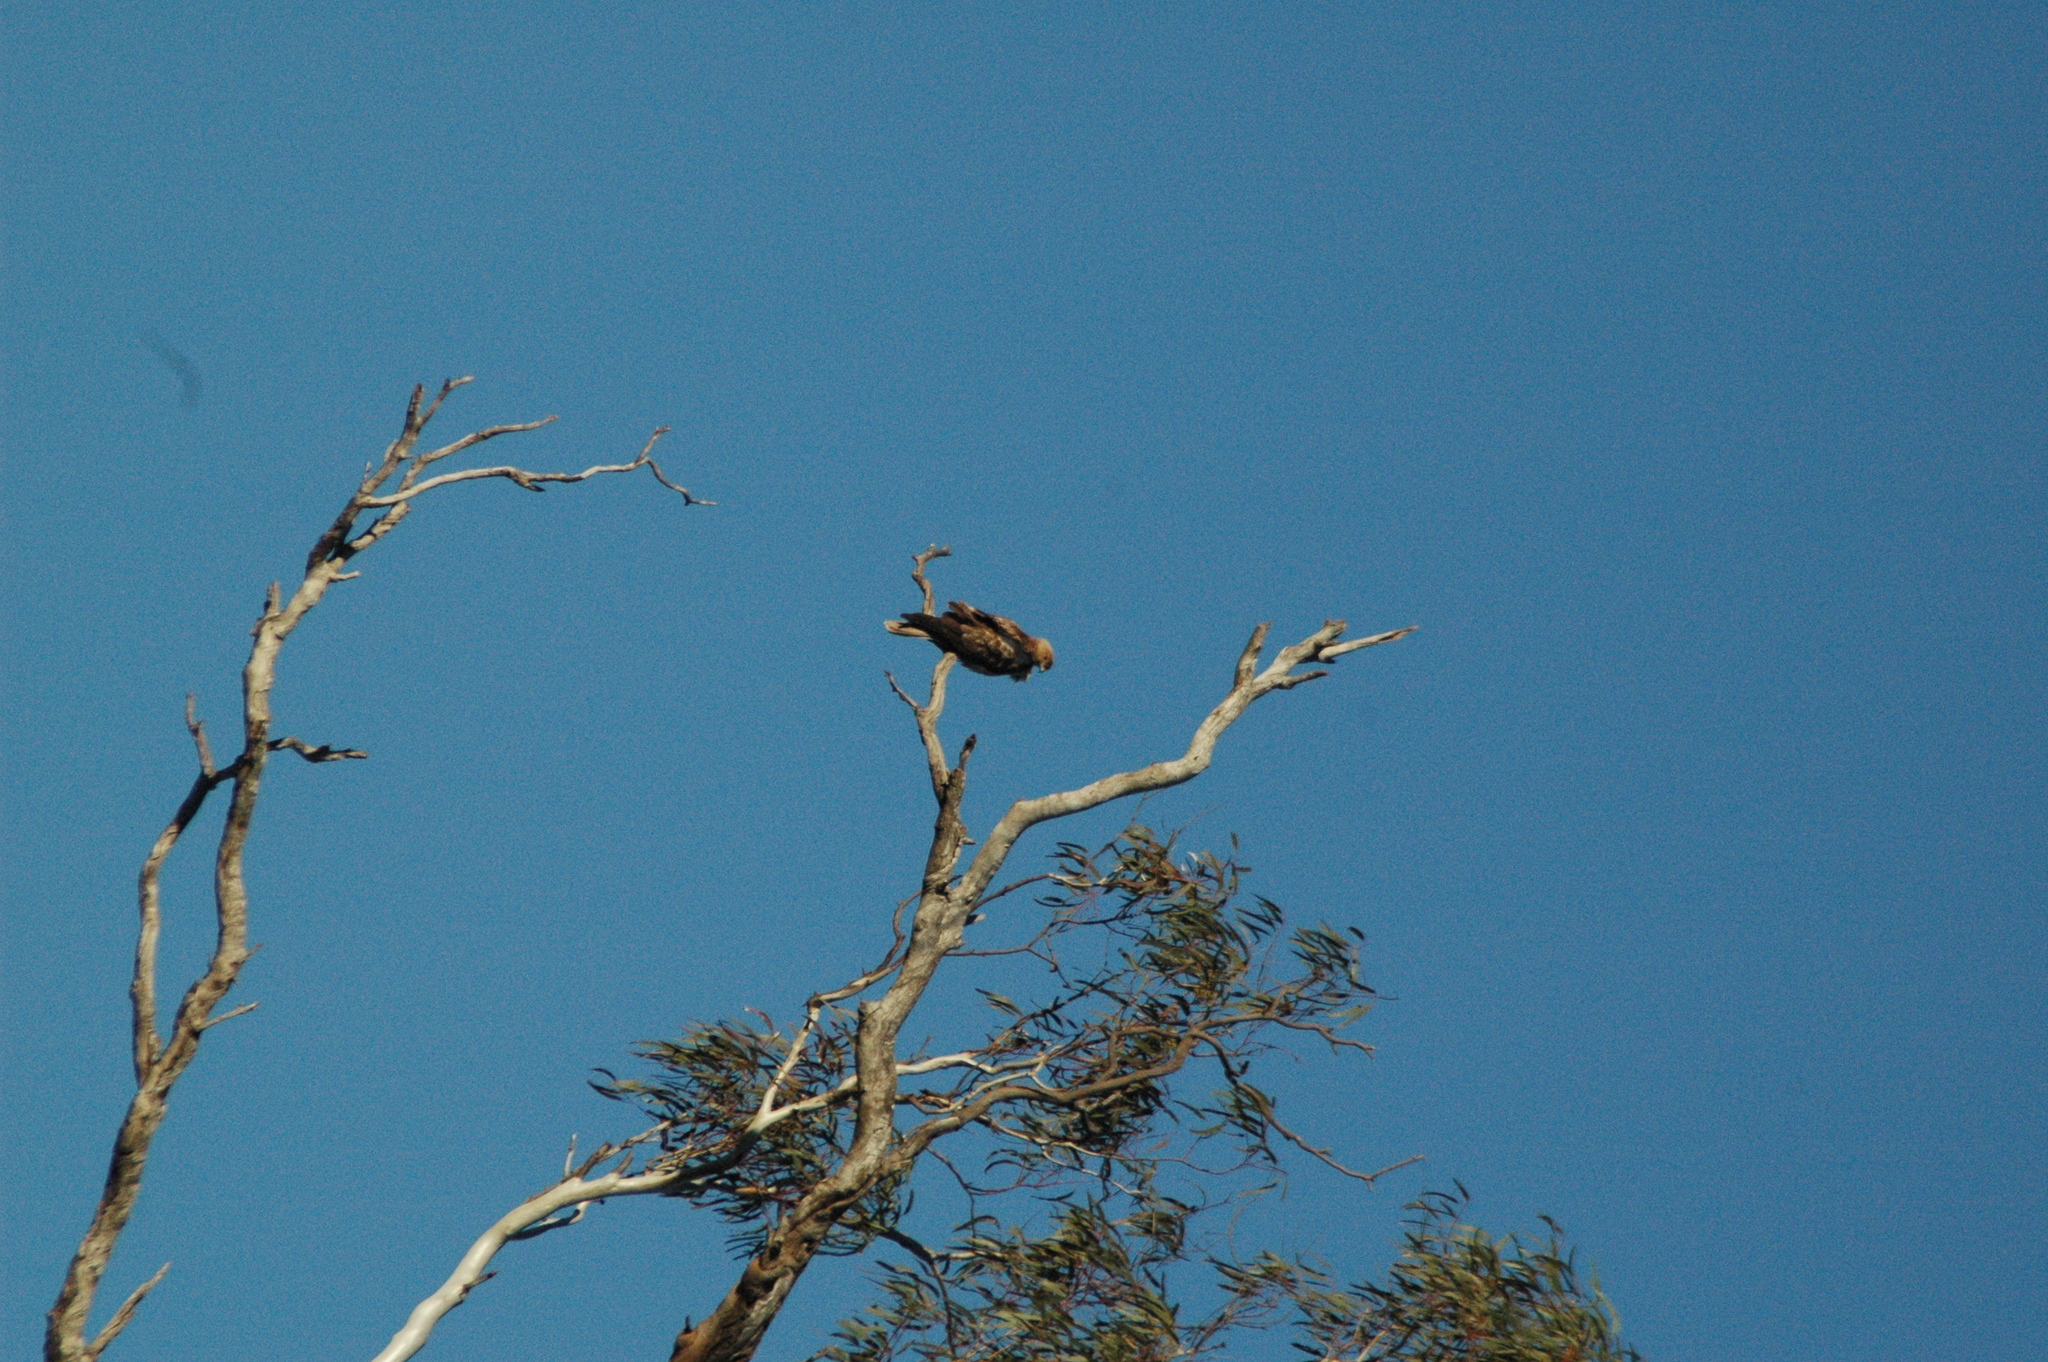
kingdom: Animalia
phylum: Chordata
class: Aves
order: Accipitriformes
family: Accipitridae
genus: Haliastur
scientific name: Haliastur sphenurus
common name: Whistling kite
